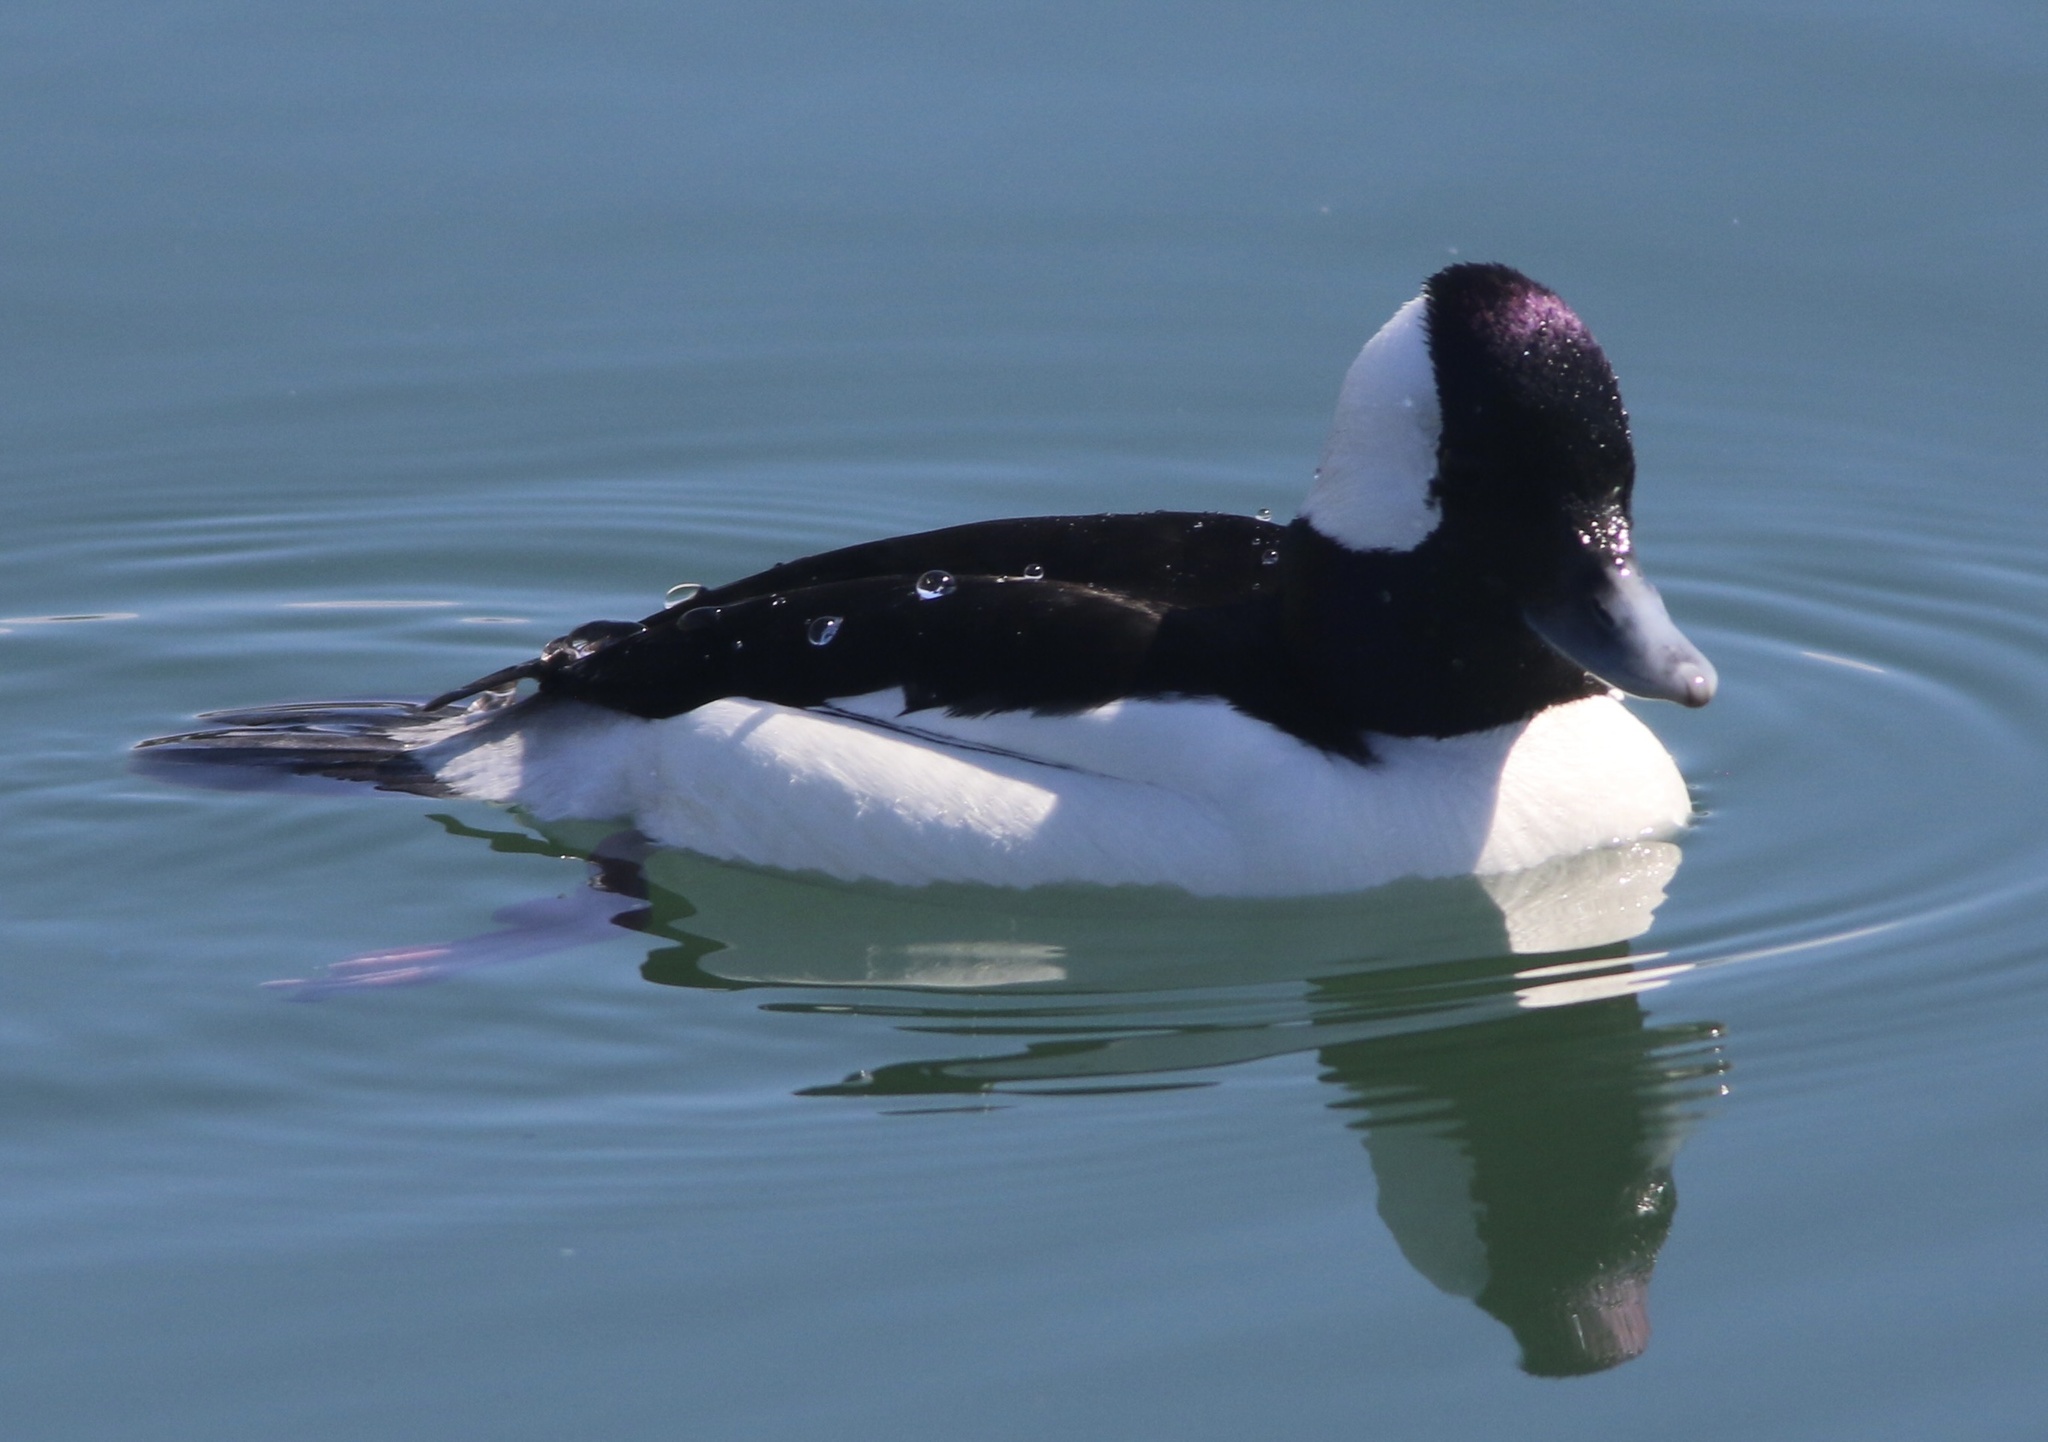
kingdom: Animalia
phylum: Chordata
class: Aves
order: Anseriformes
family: Anatidae
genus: Bucephala
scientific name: Bucephala albeola
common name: Bufflehead
